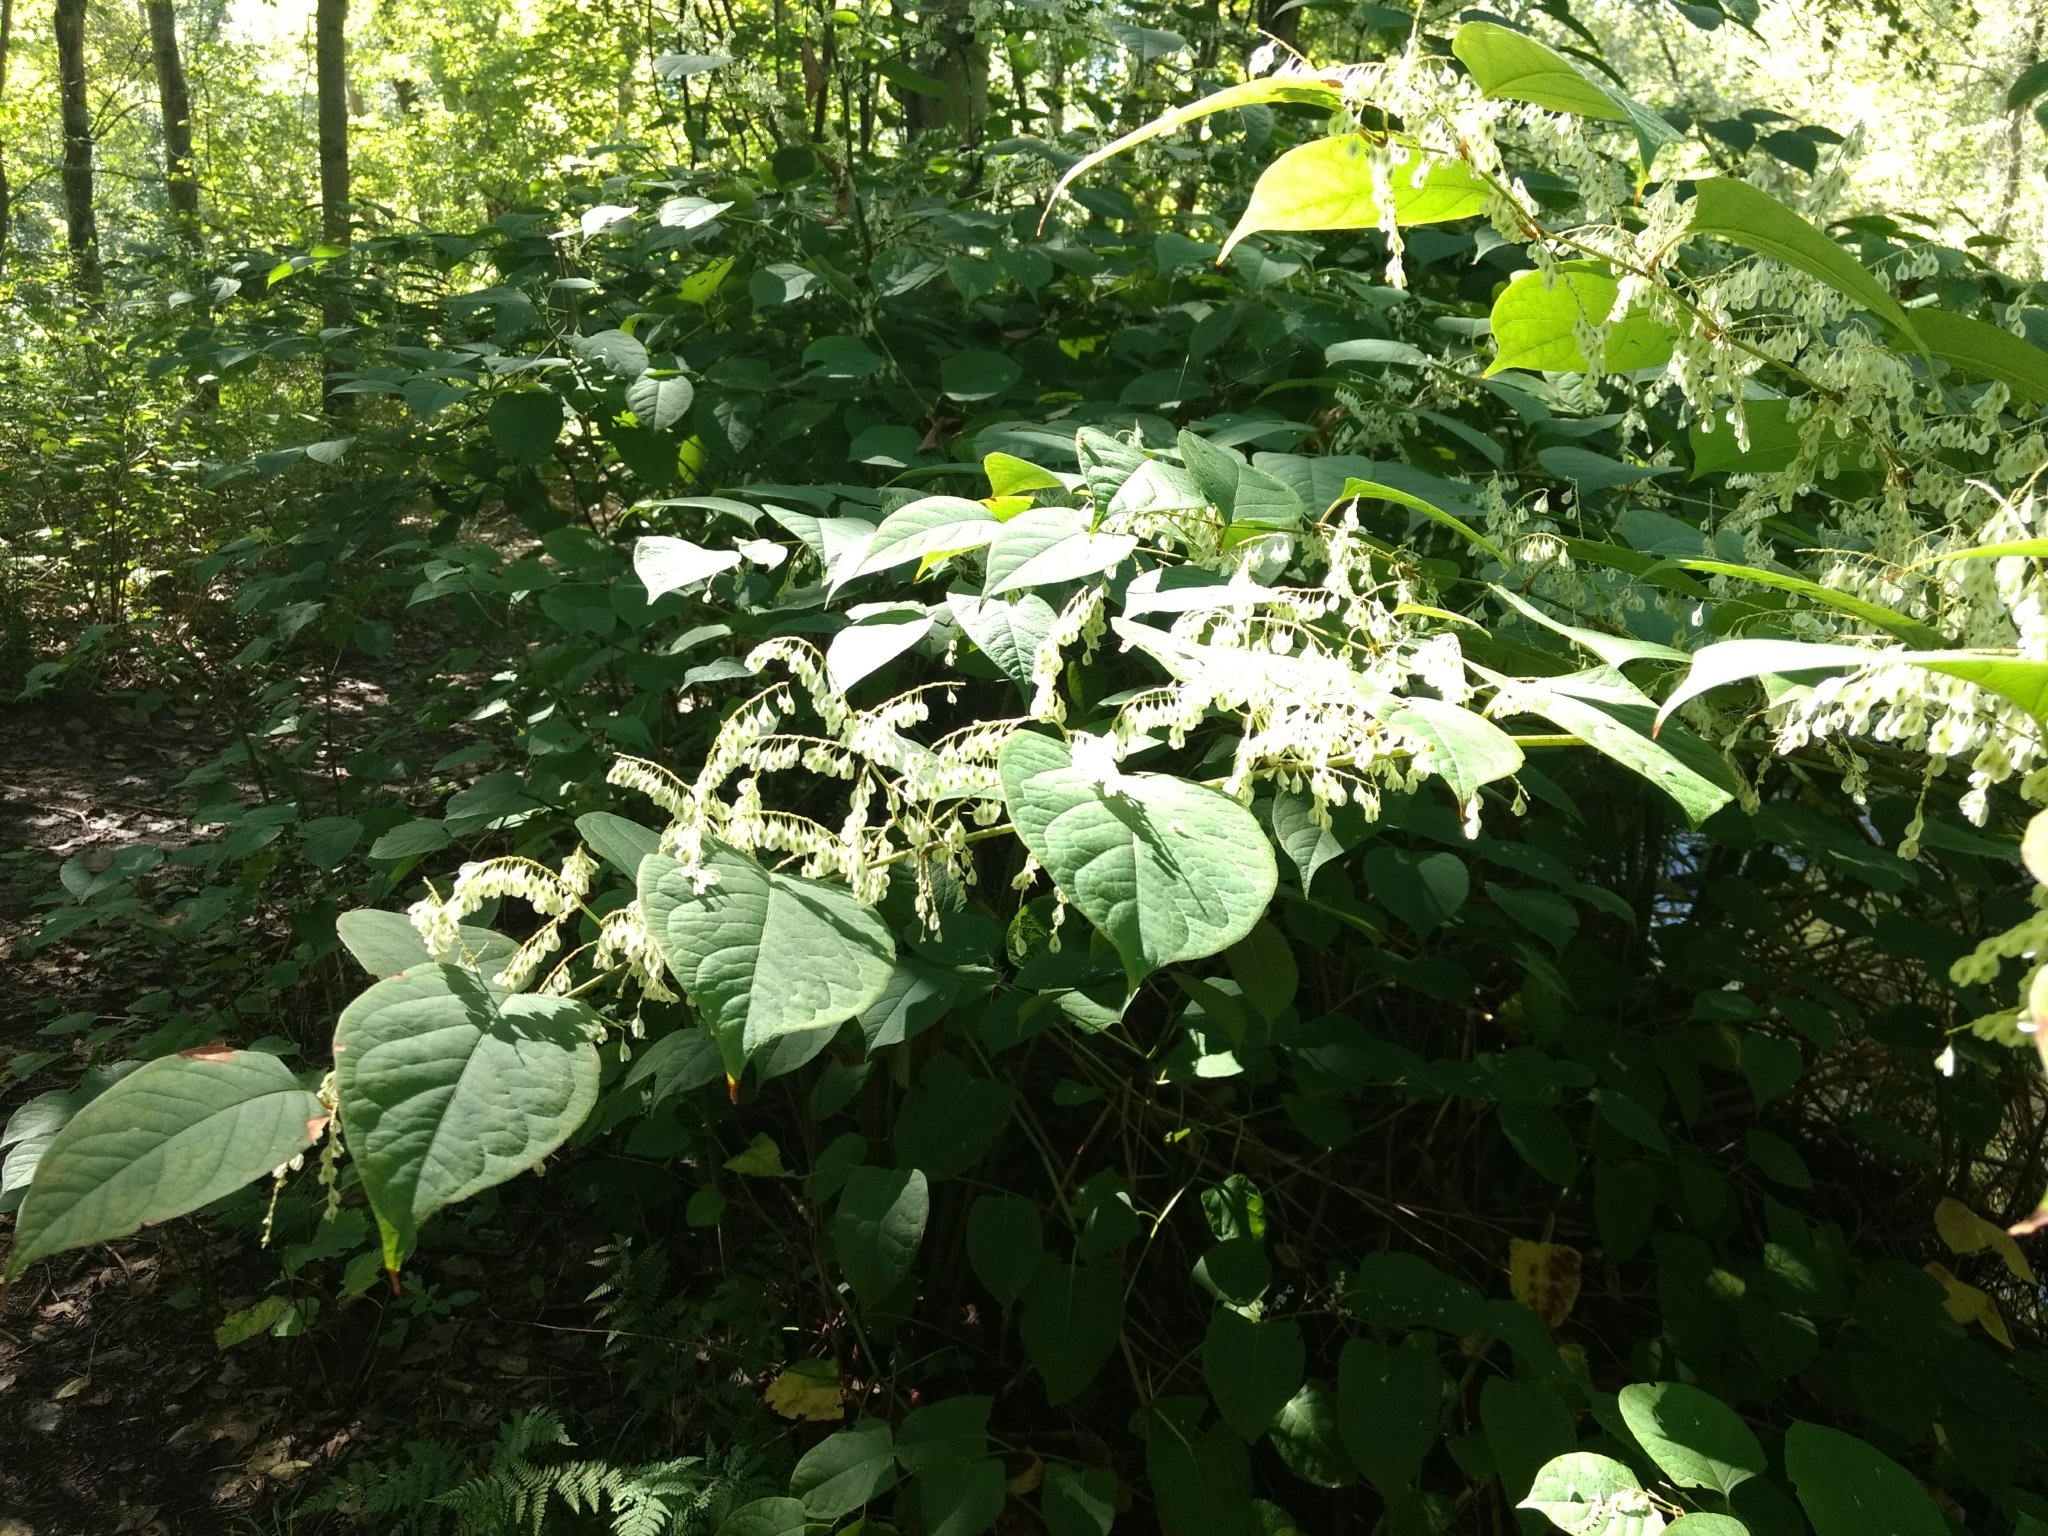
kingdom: Plantae
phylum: Tracheophyta
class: Magnoliopsida
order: Caryophyllales
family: Polygonaceae
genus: Reynoutria
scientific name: Reynoutria japonica
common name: Japanese knotweed
